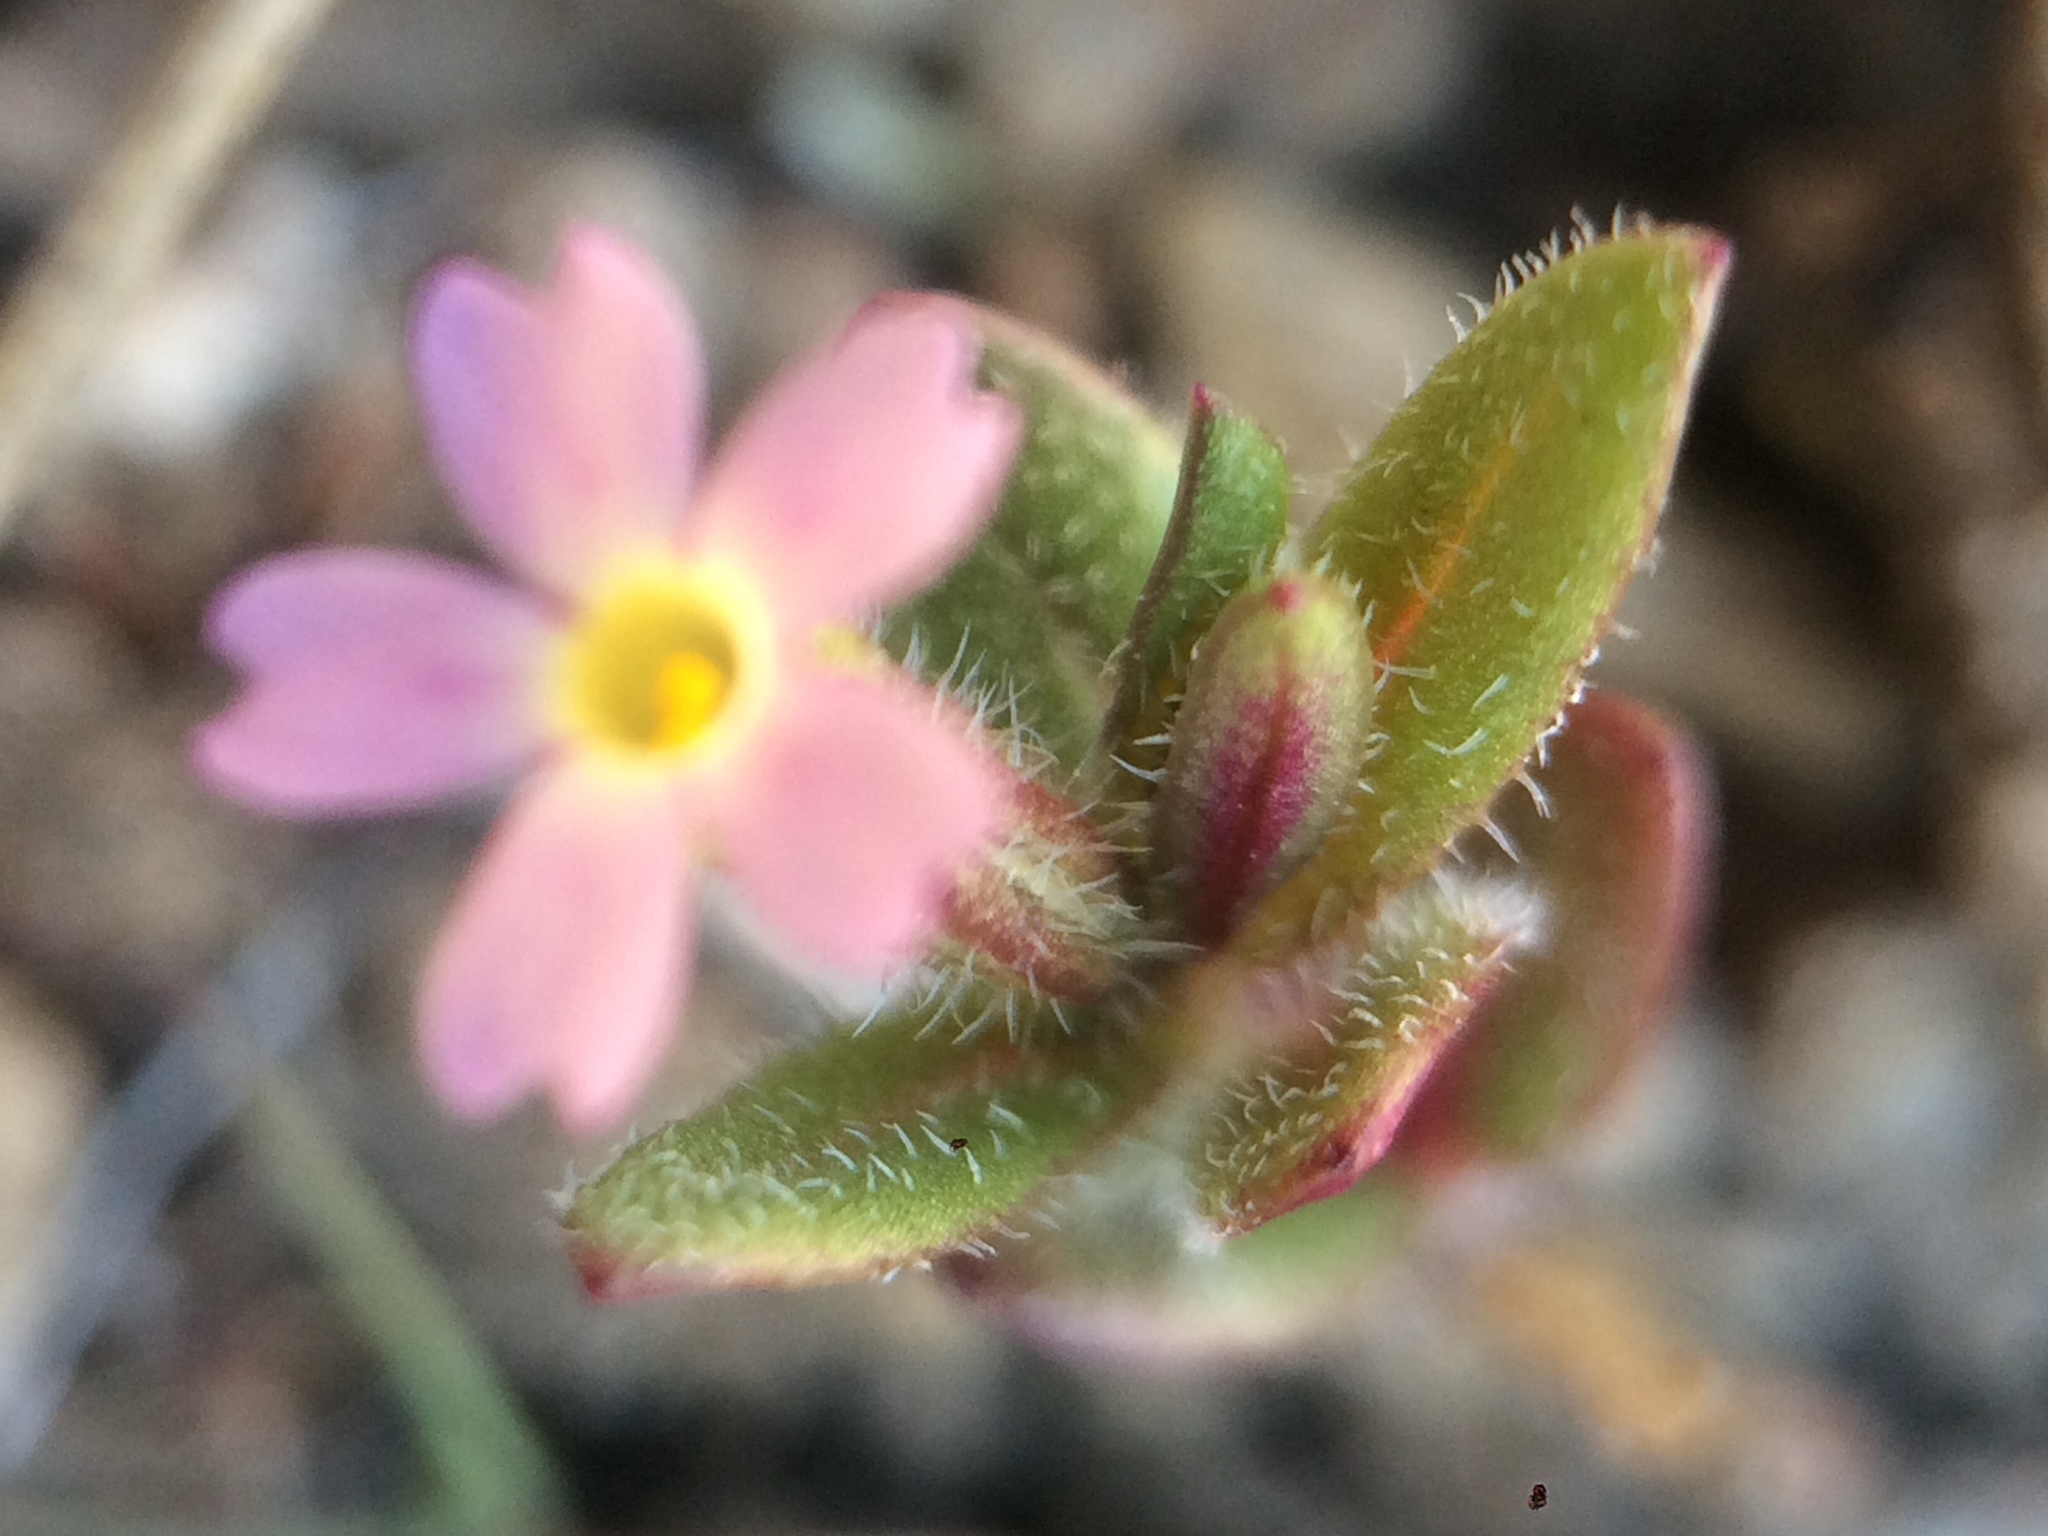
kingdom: Plantae
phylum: Tracheophyta
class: Magnoliopsida
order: Ericales
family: Polemoniaceae
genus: Phlox
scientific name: Phlox gracilis
